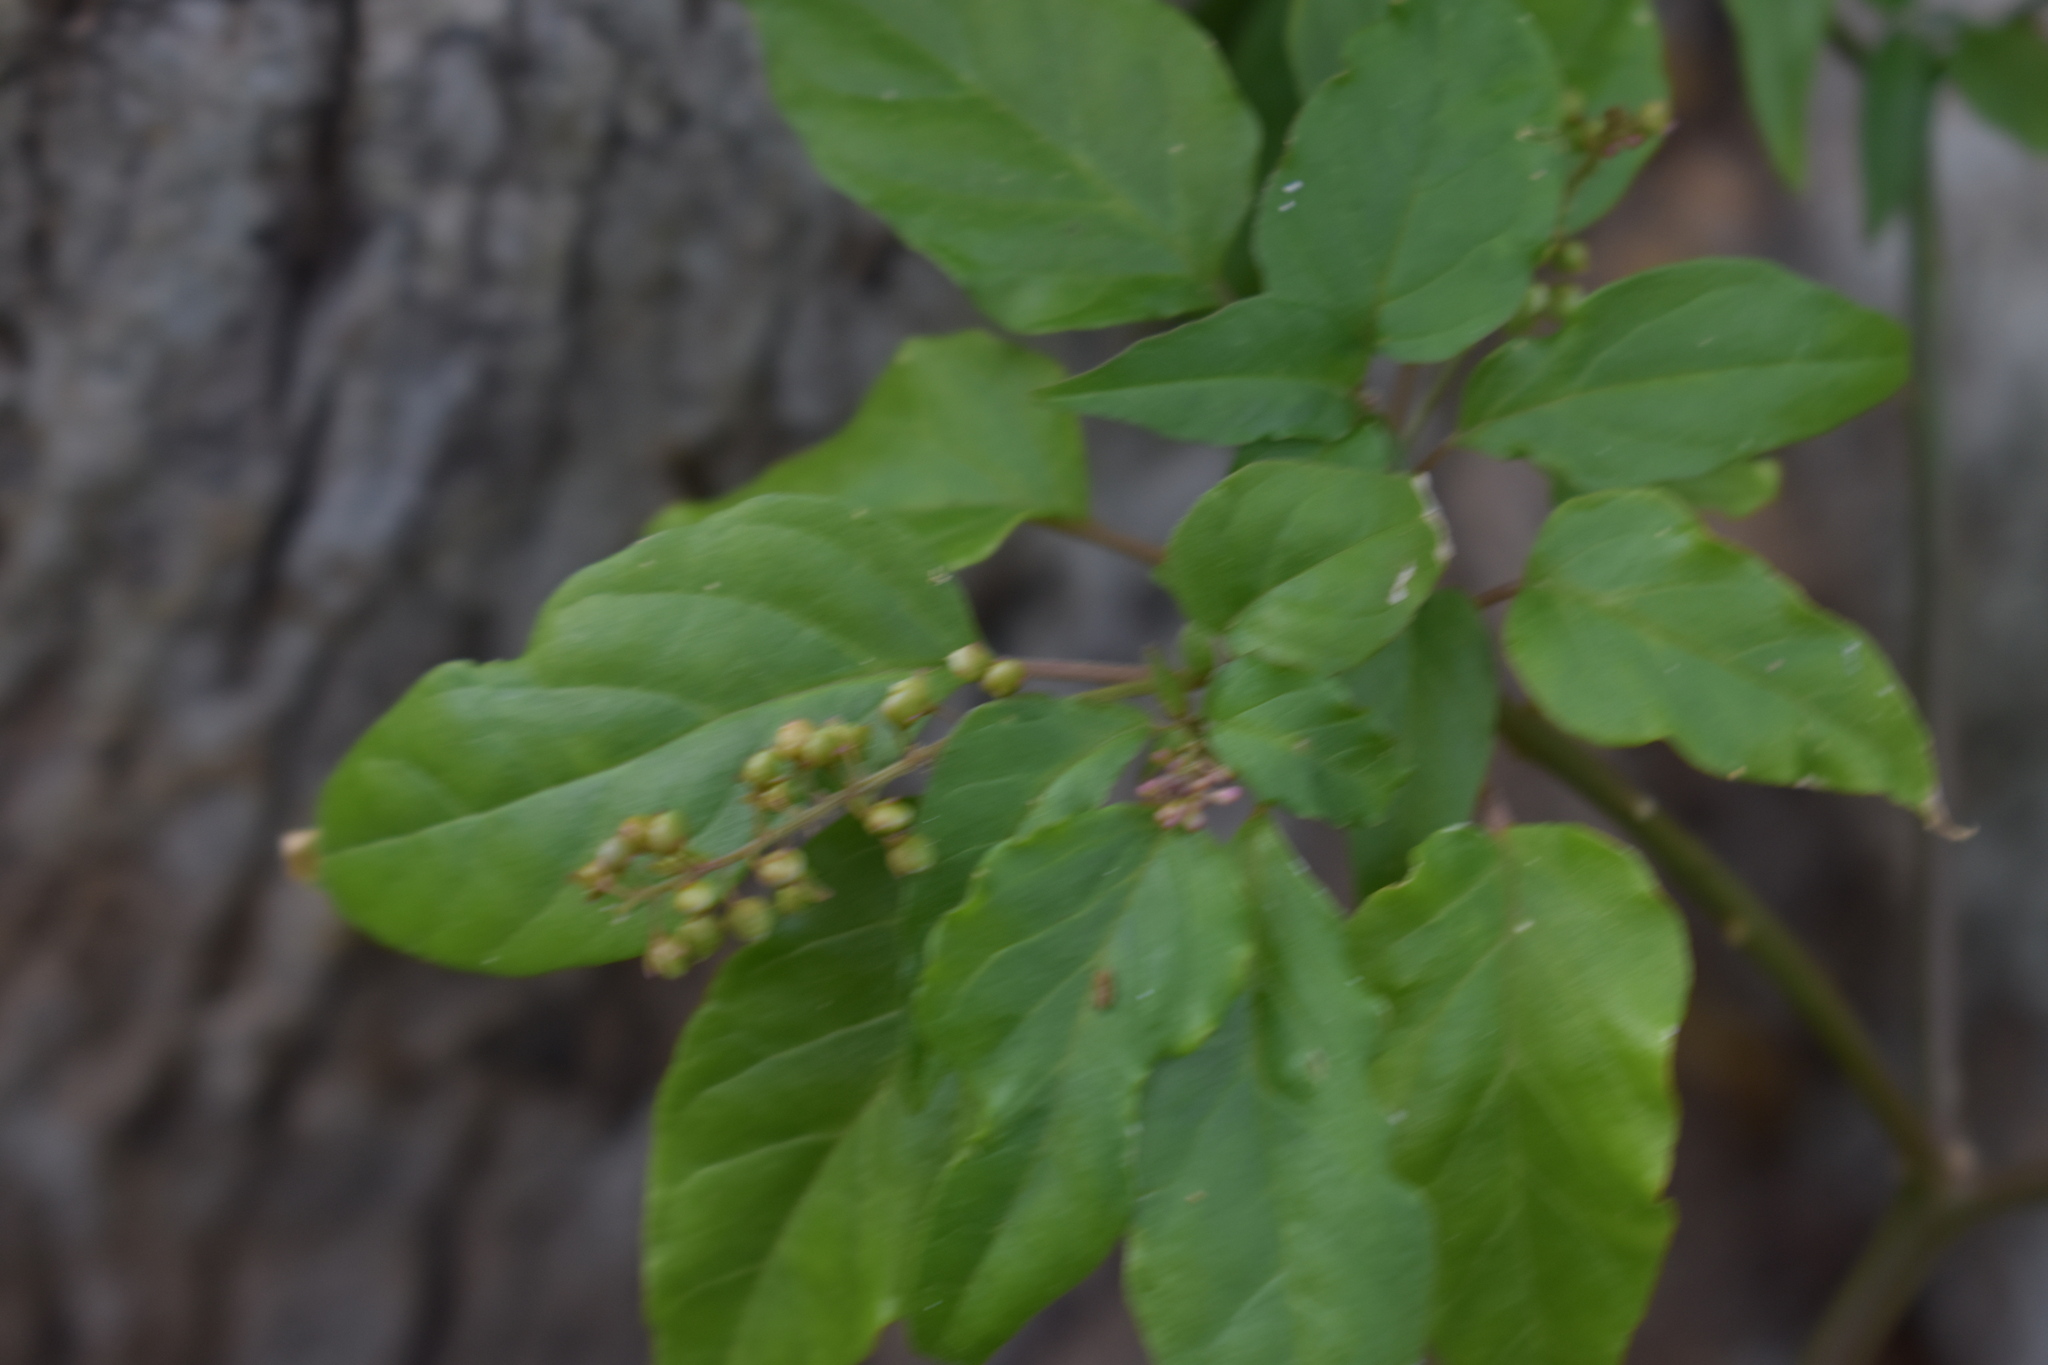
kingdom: Plantae
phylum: Tracheophyta
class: Magnoliopsida
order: Caryophyllales
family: Phytolaccaceae
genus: Rivina
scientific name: Rivina humilis
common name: Rougeplant
